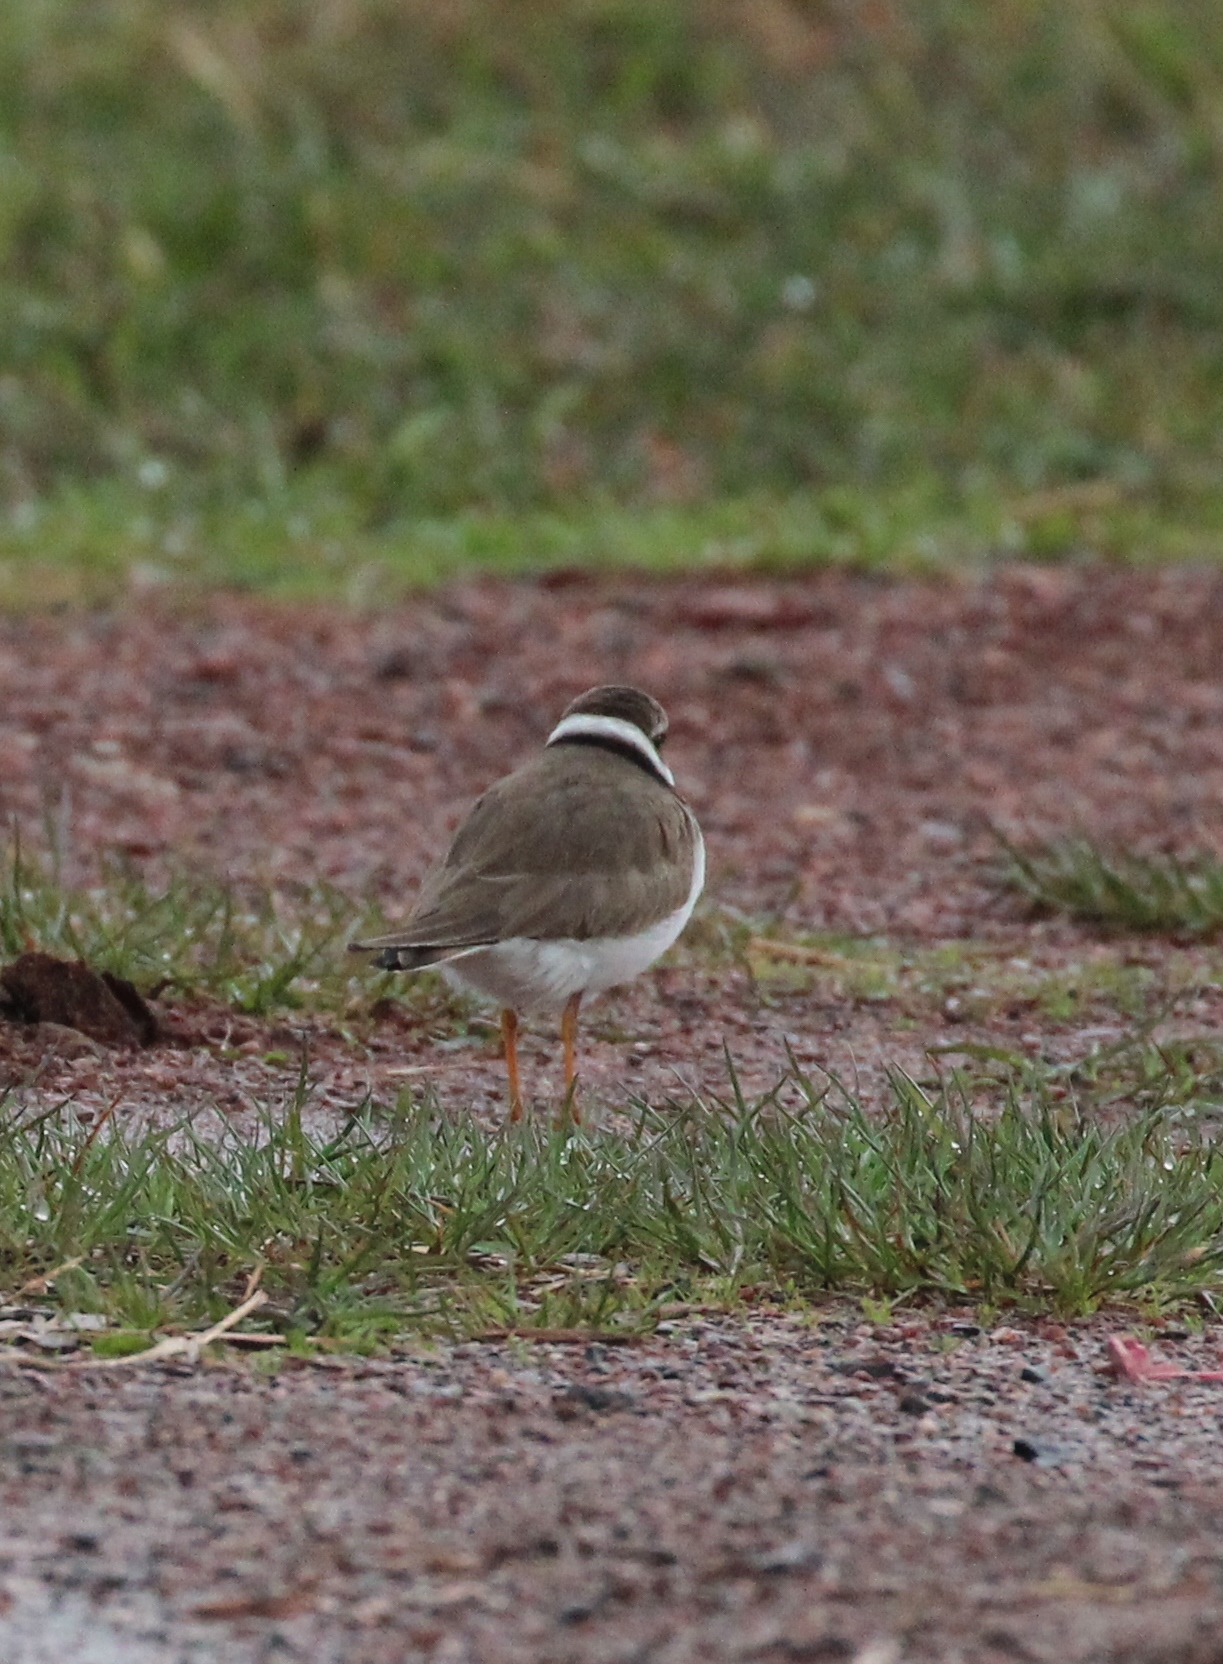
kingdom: Animalia
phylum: Chordata
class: Aves
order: Charadriiformes
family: Charadriidae
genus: Charadrius
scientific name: Charadrius semipalmatus
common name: Semipalmated plover
